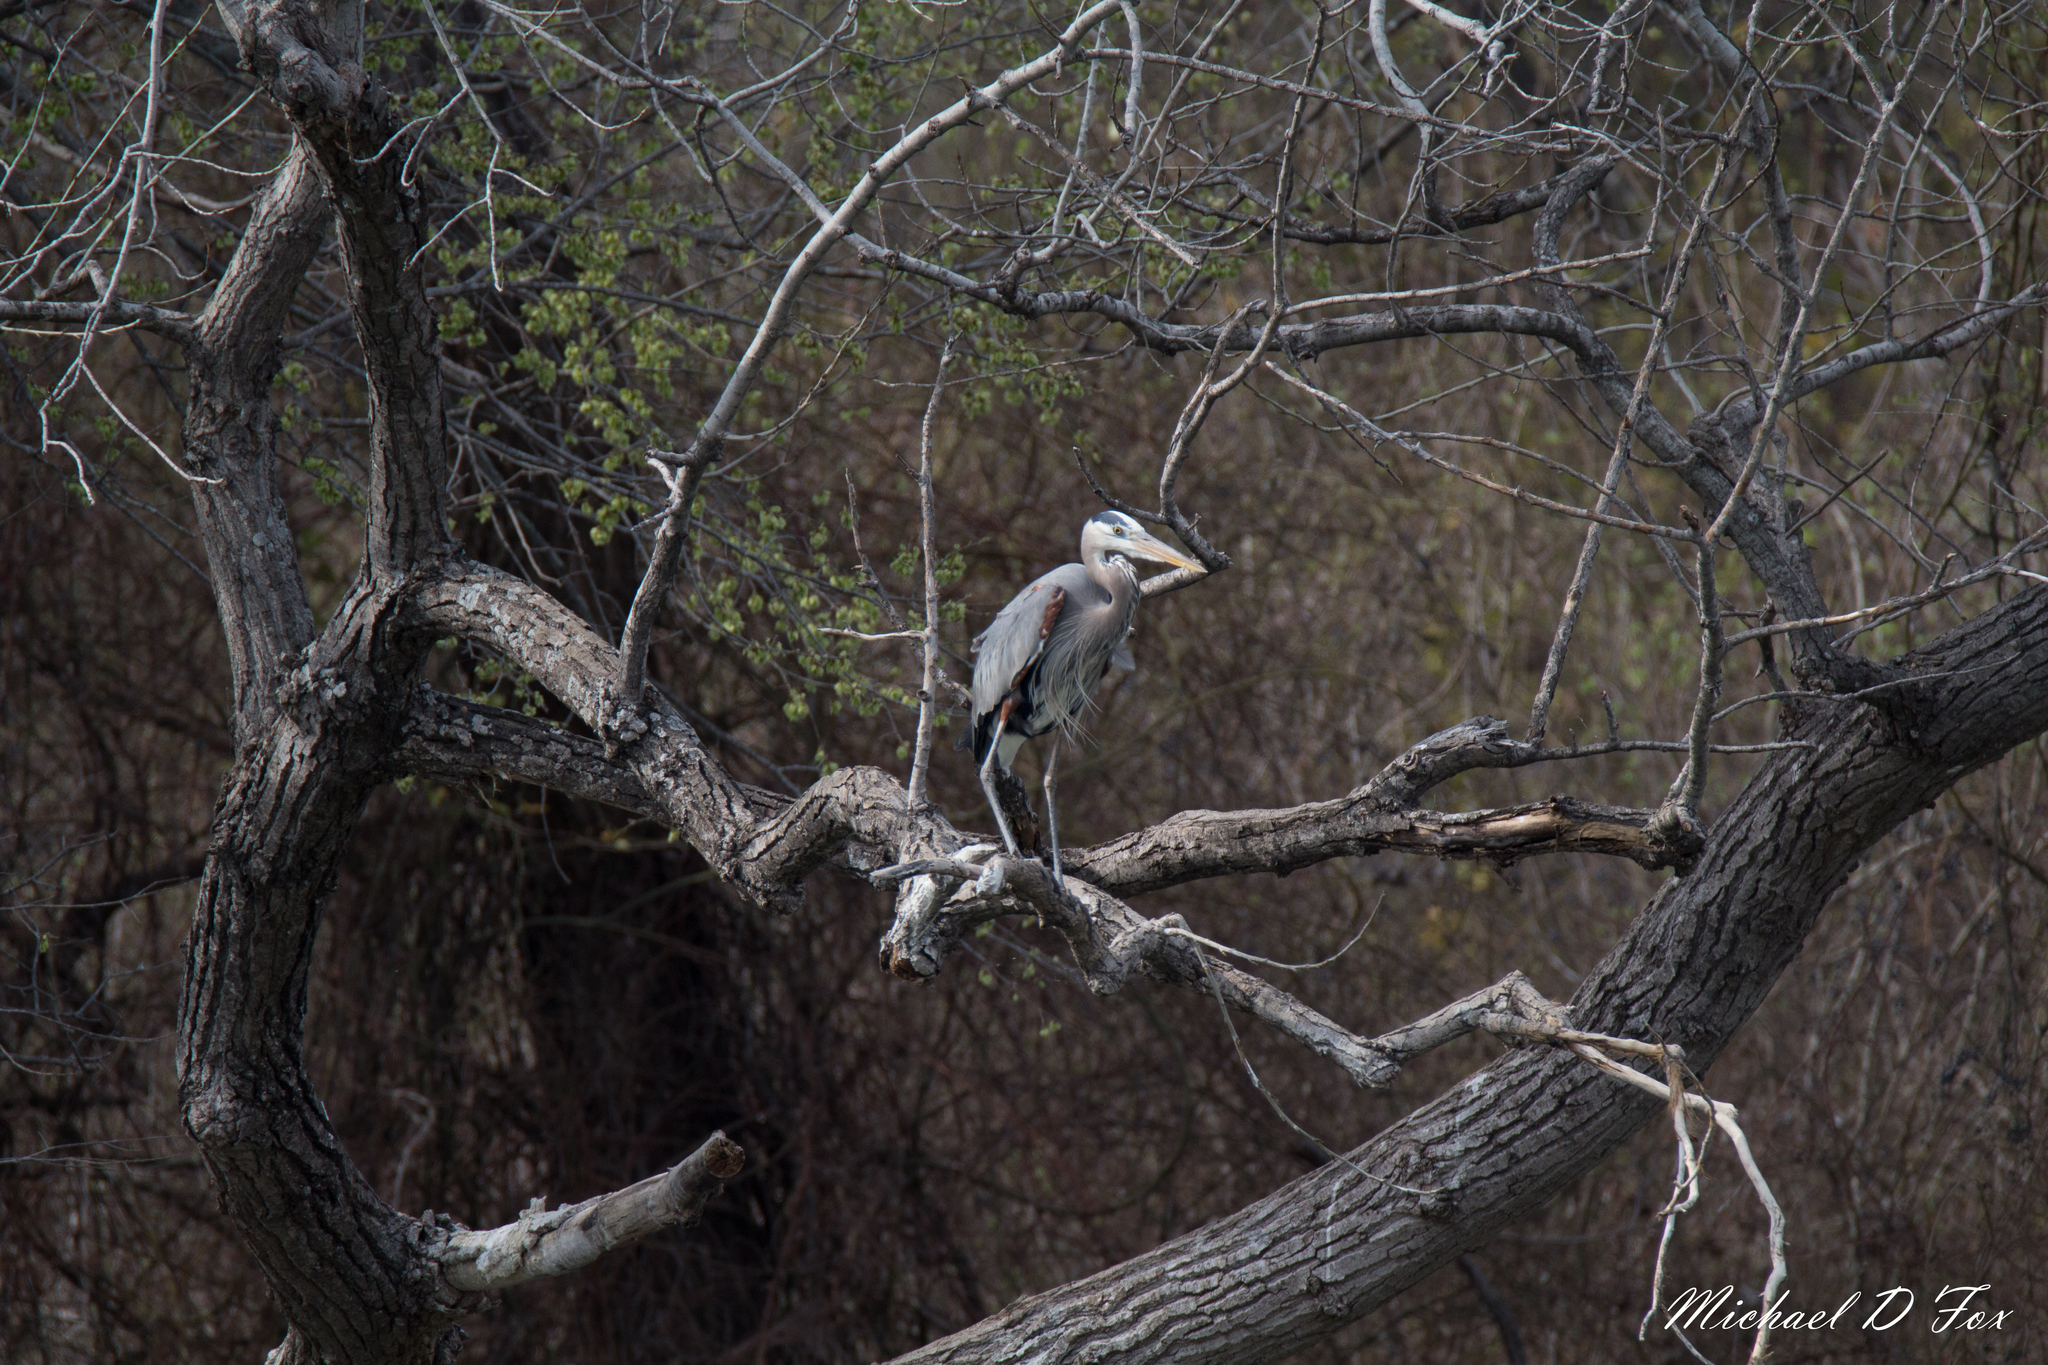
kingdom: Animalia
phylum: Chordata
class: Aves
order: Pelecaniformes
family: Ardeidae
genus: Ardea
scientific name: Ardea herodias
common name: Great blue heron
